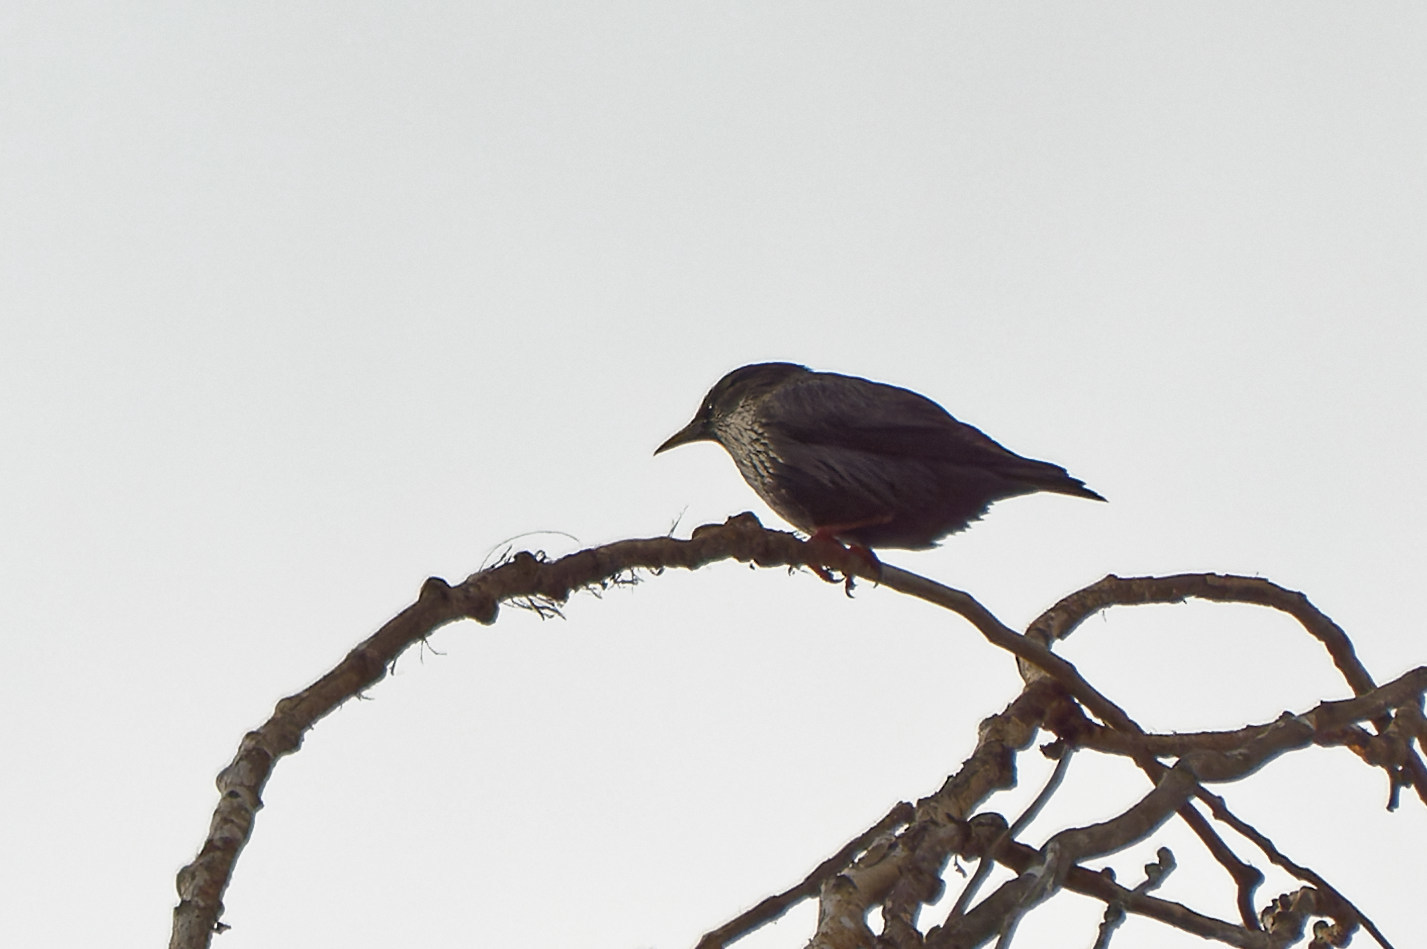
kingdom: Animalia
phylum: Chordata
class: Aves
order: Passeriformes
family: Sturnidae
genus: Sturnus
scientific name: Sturnus unicolor
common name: Spotless starling
